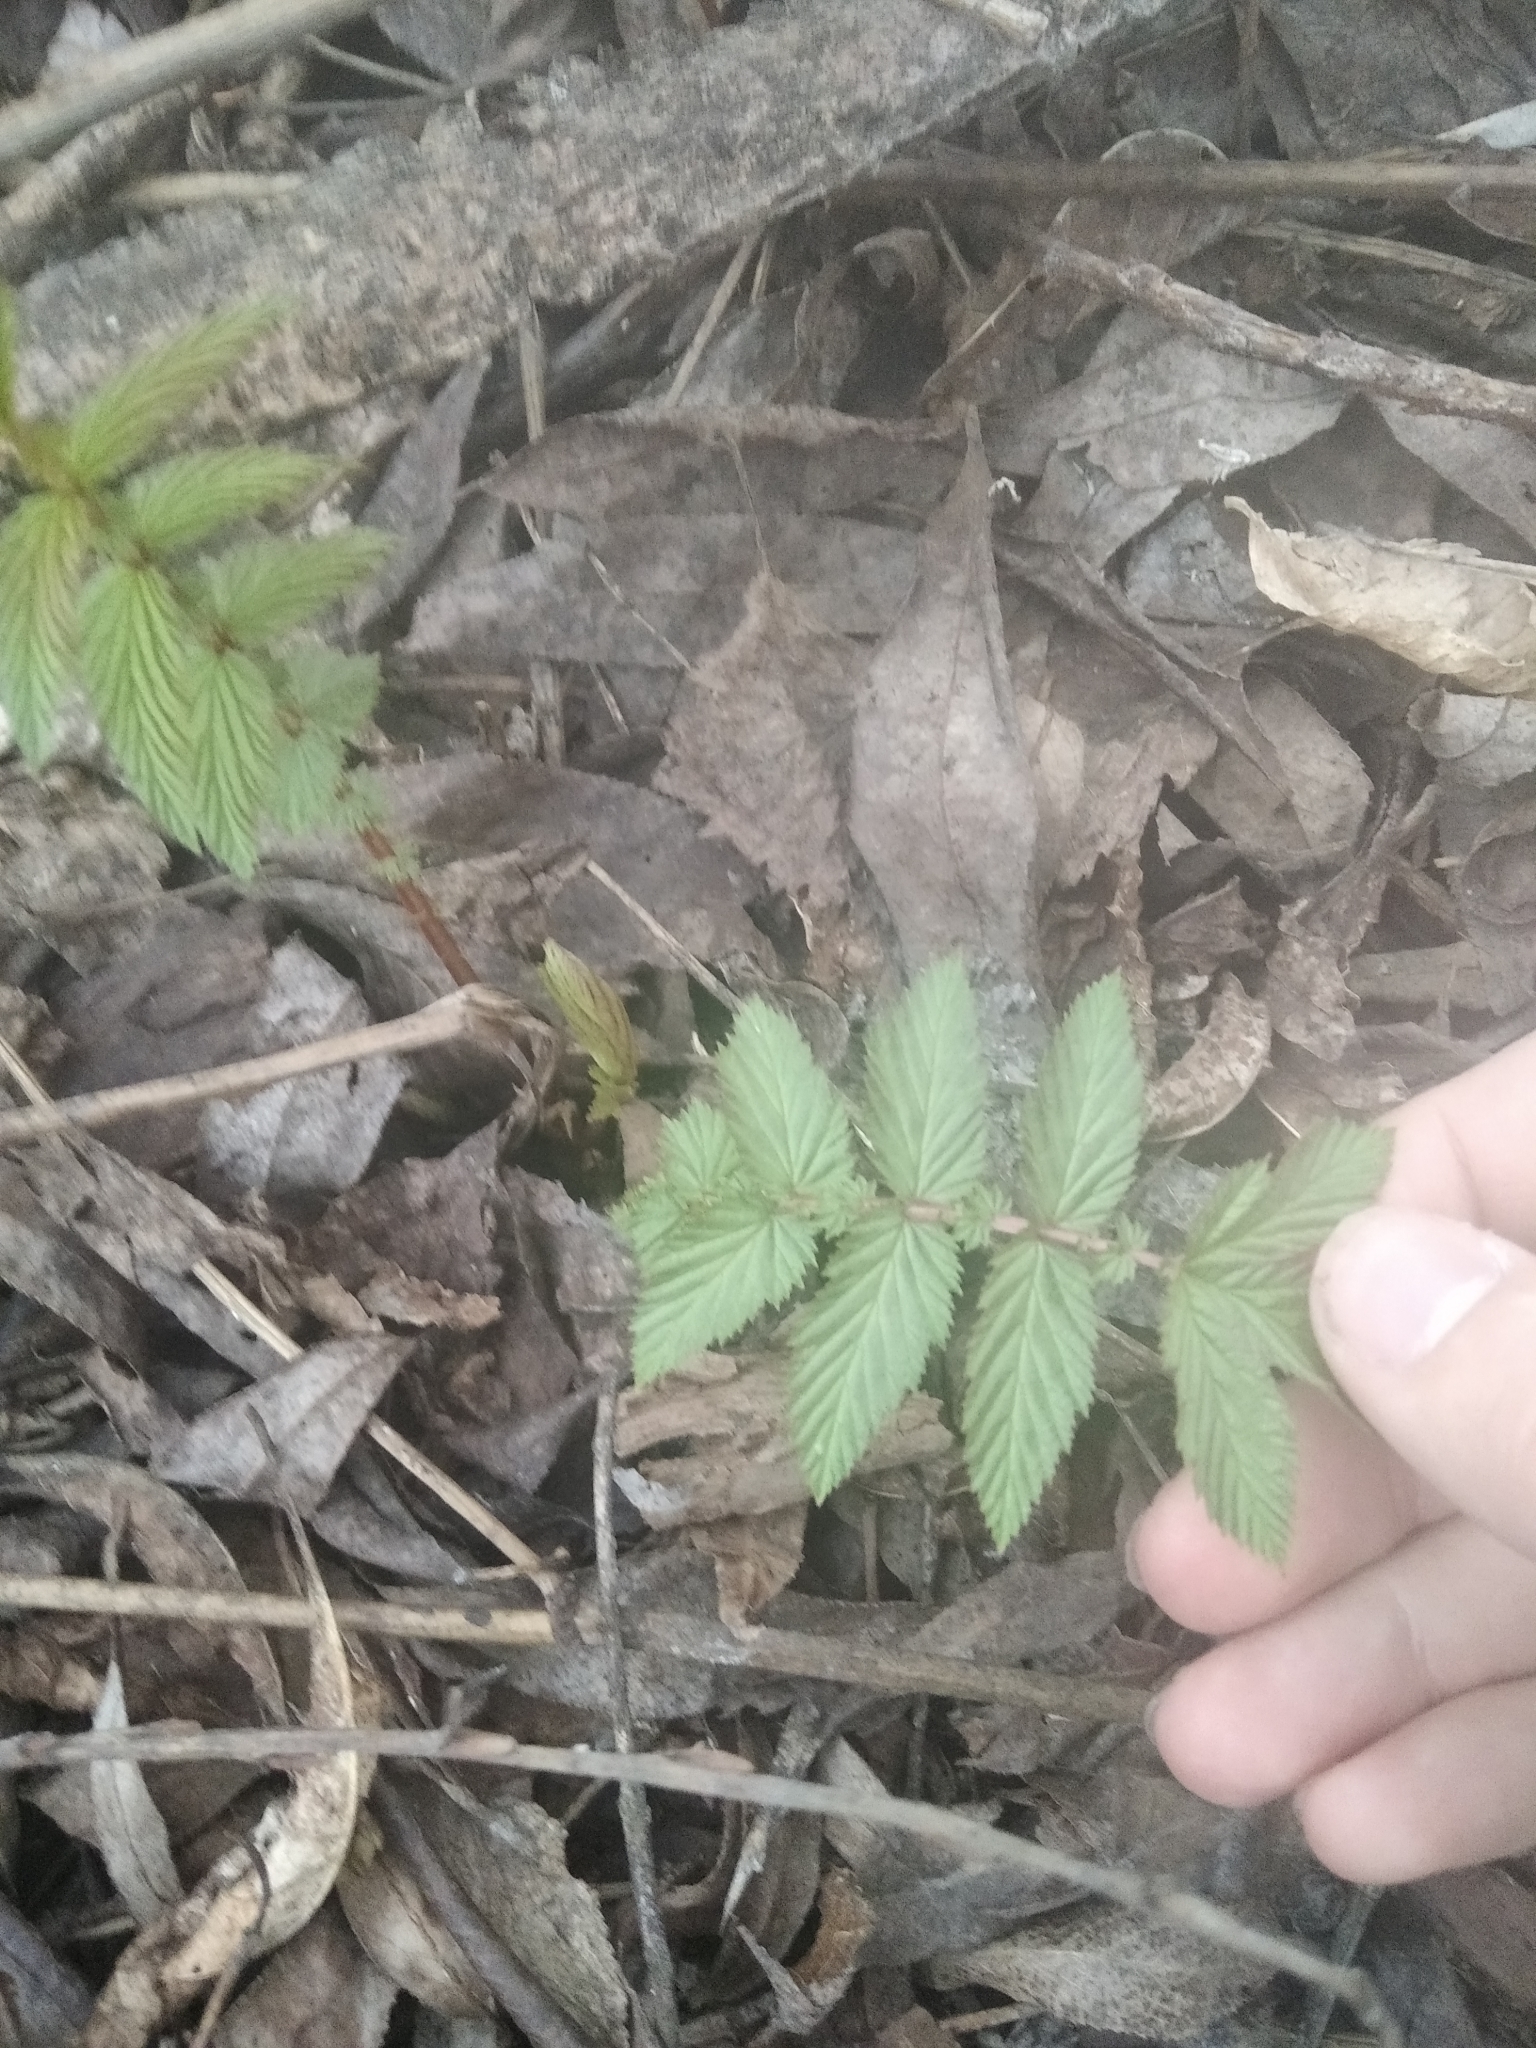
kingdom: Plantae
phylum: Tracheophyta
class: Magnoliopsida
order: Rosales
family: Rosaceae
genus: Filipendula
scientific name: Filipendula ulmaria
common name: Meadowsweet
